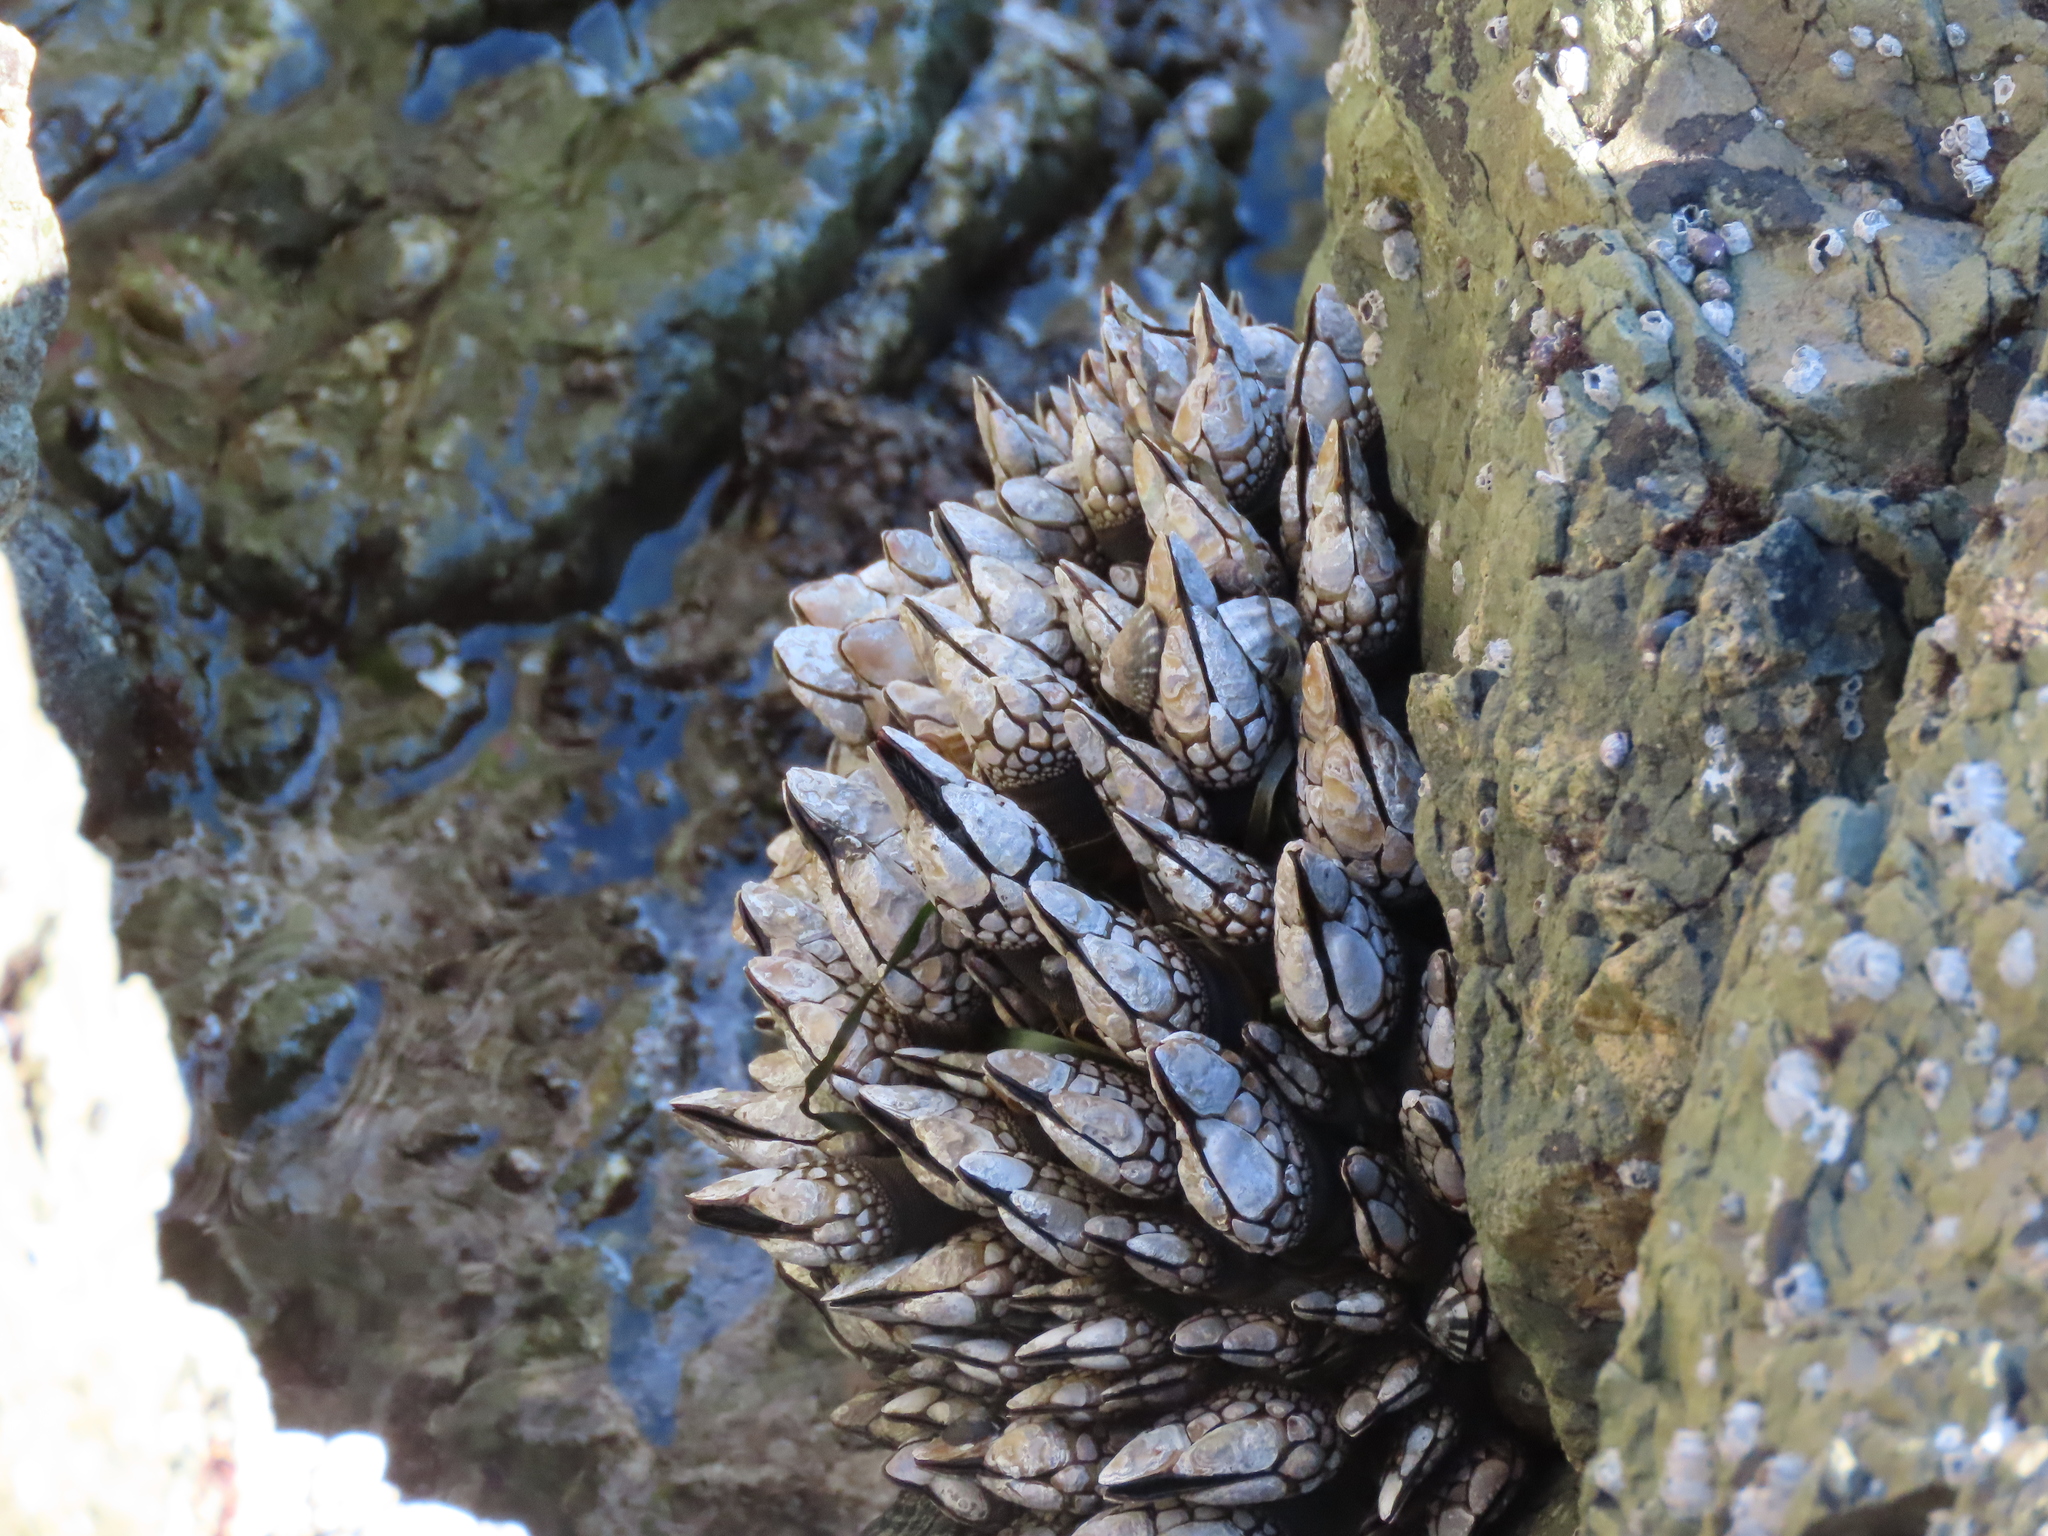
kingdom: Animalia
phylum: Arthropoda
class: Maxillopoda
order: Pedunculata
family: Pollicipedidae
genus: Pollicipes
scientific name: Pollicipes polymerus
